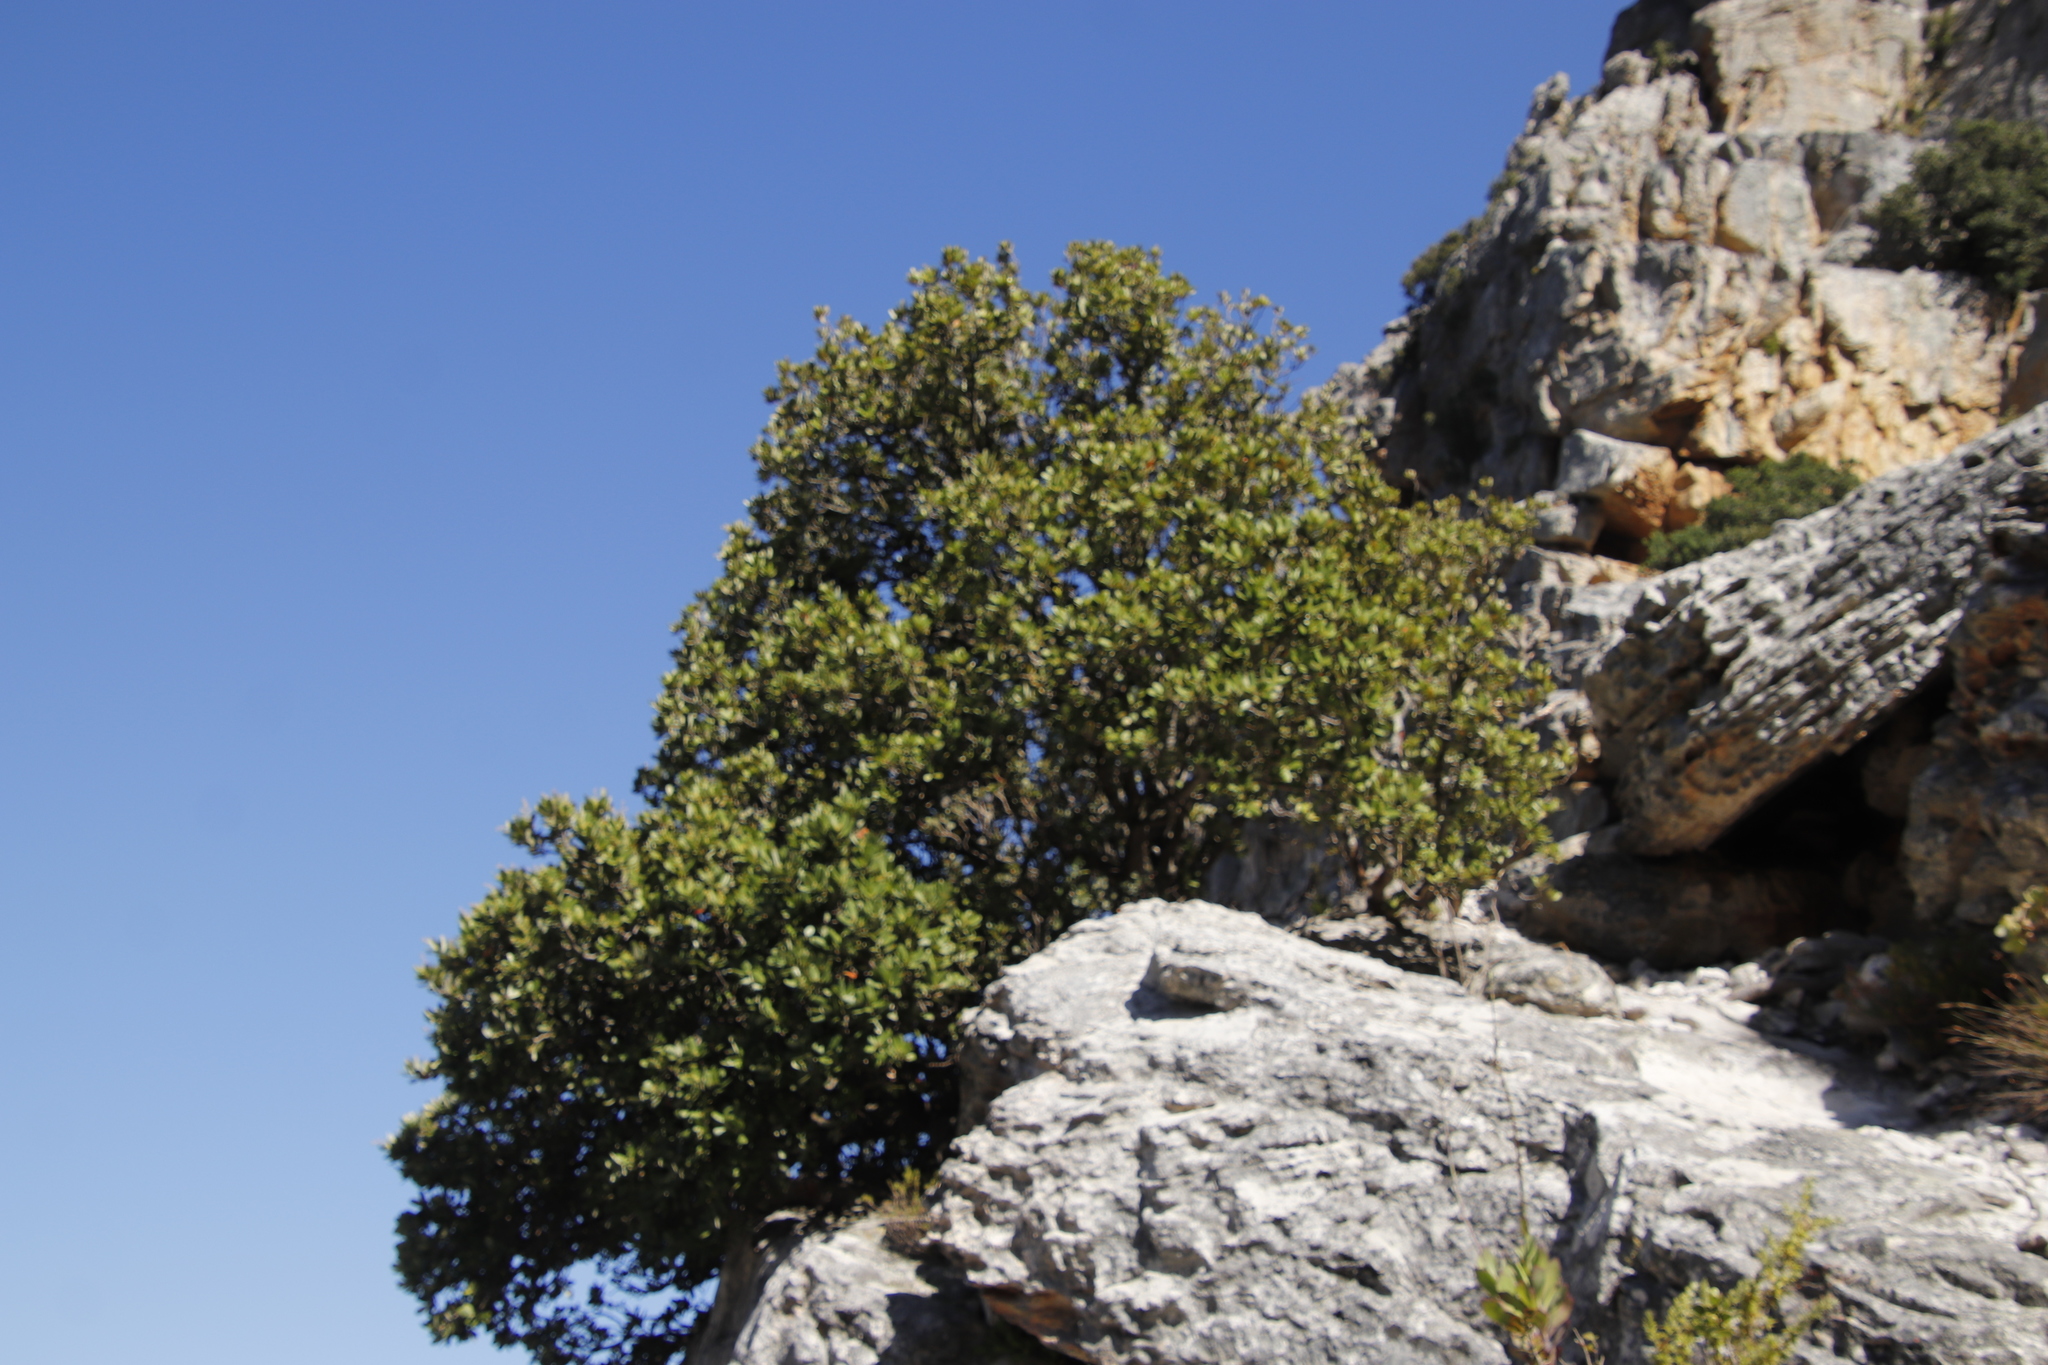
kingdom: Plantae
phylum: Tracheophyta
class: Magnoliopsida
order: Sapindales
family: Anacardiaceae
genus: Heeria
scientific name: Heeria argentea
